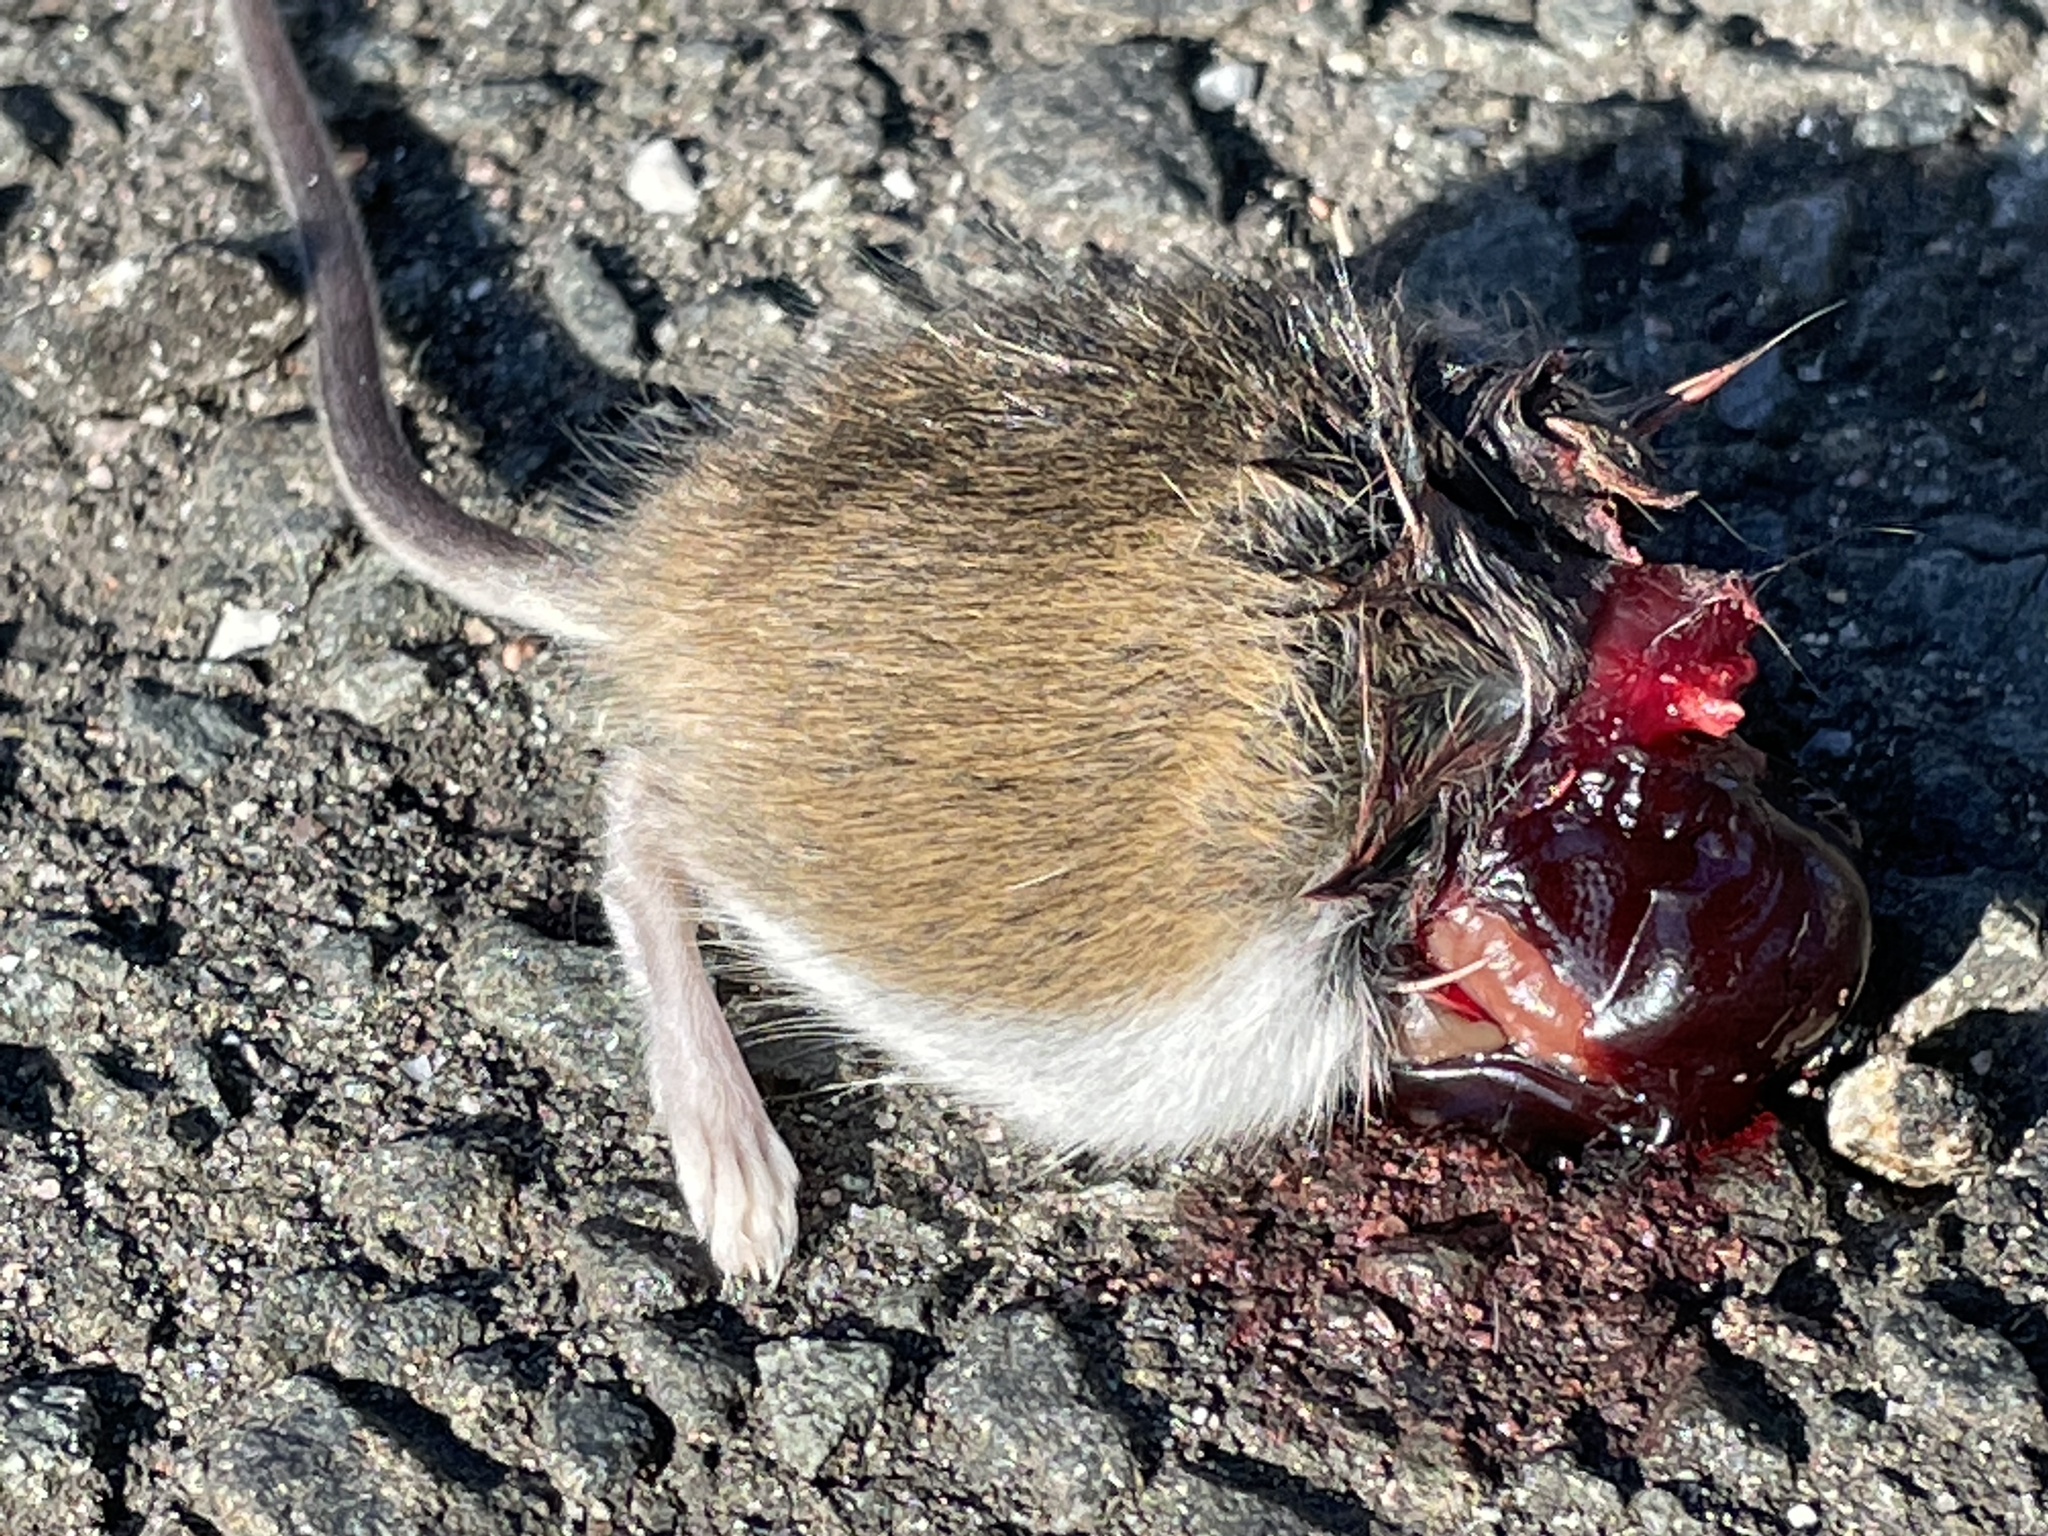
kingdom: Animalia
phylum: Chordata
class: Mammalia
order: Rodentia
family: Cricetidae
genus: Peromyscus
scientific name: Peromyscus leucopus
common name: White-footed deermouse
